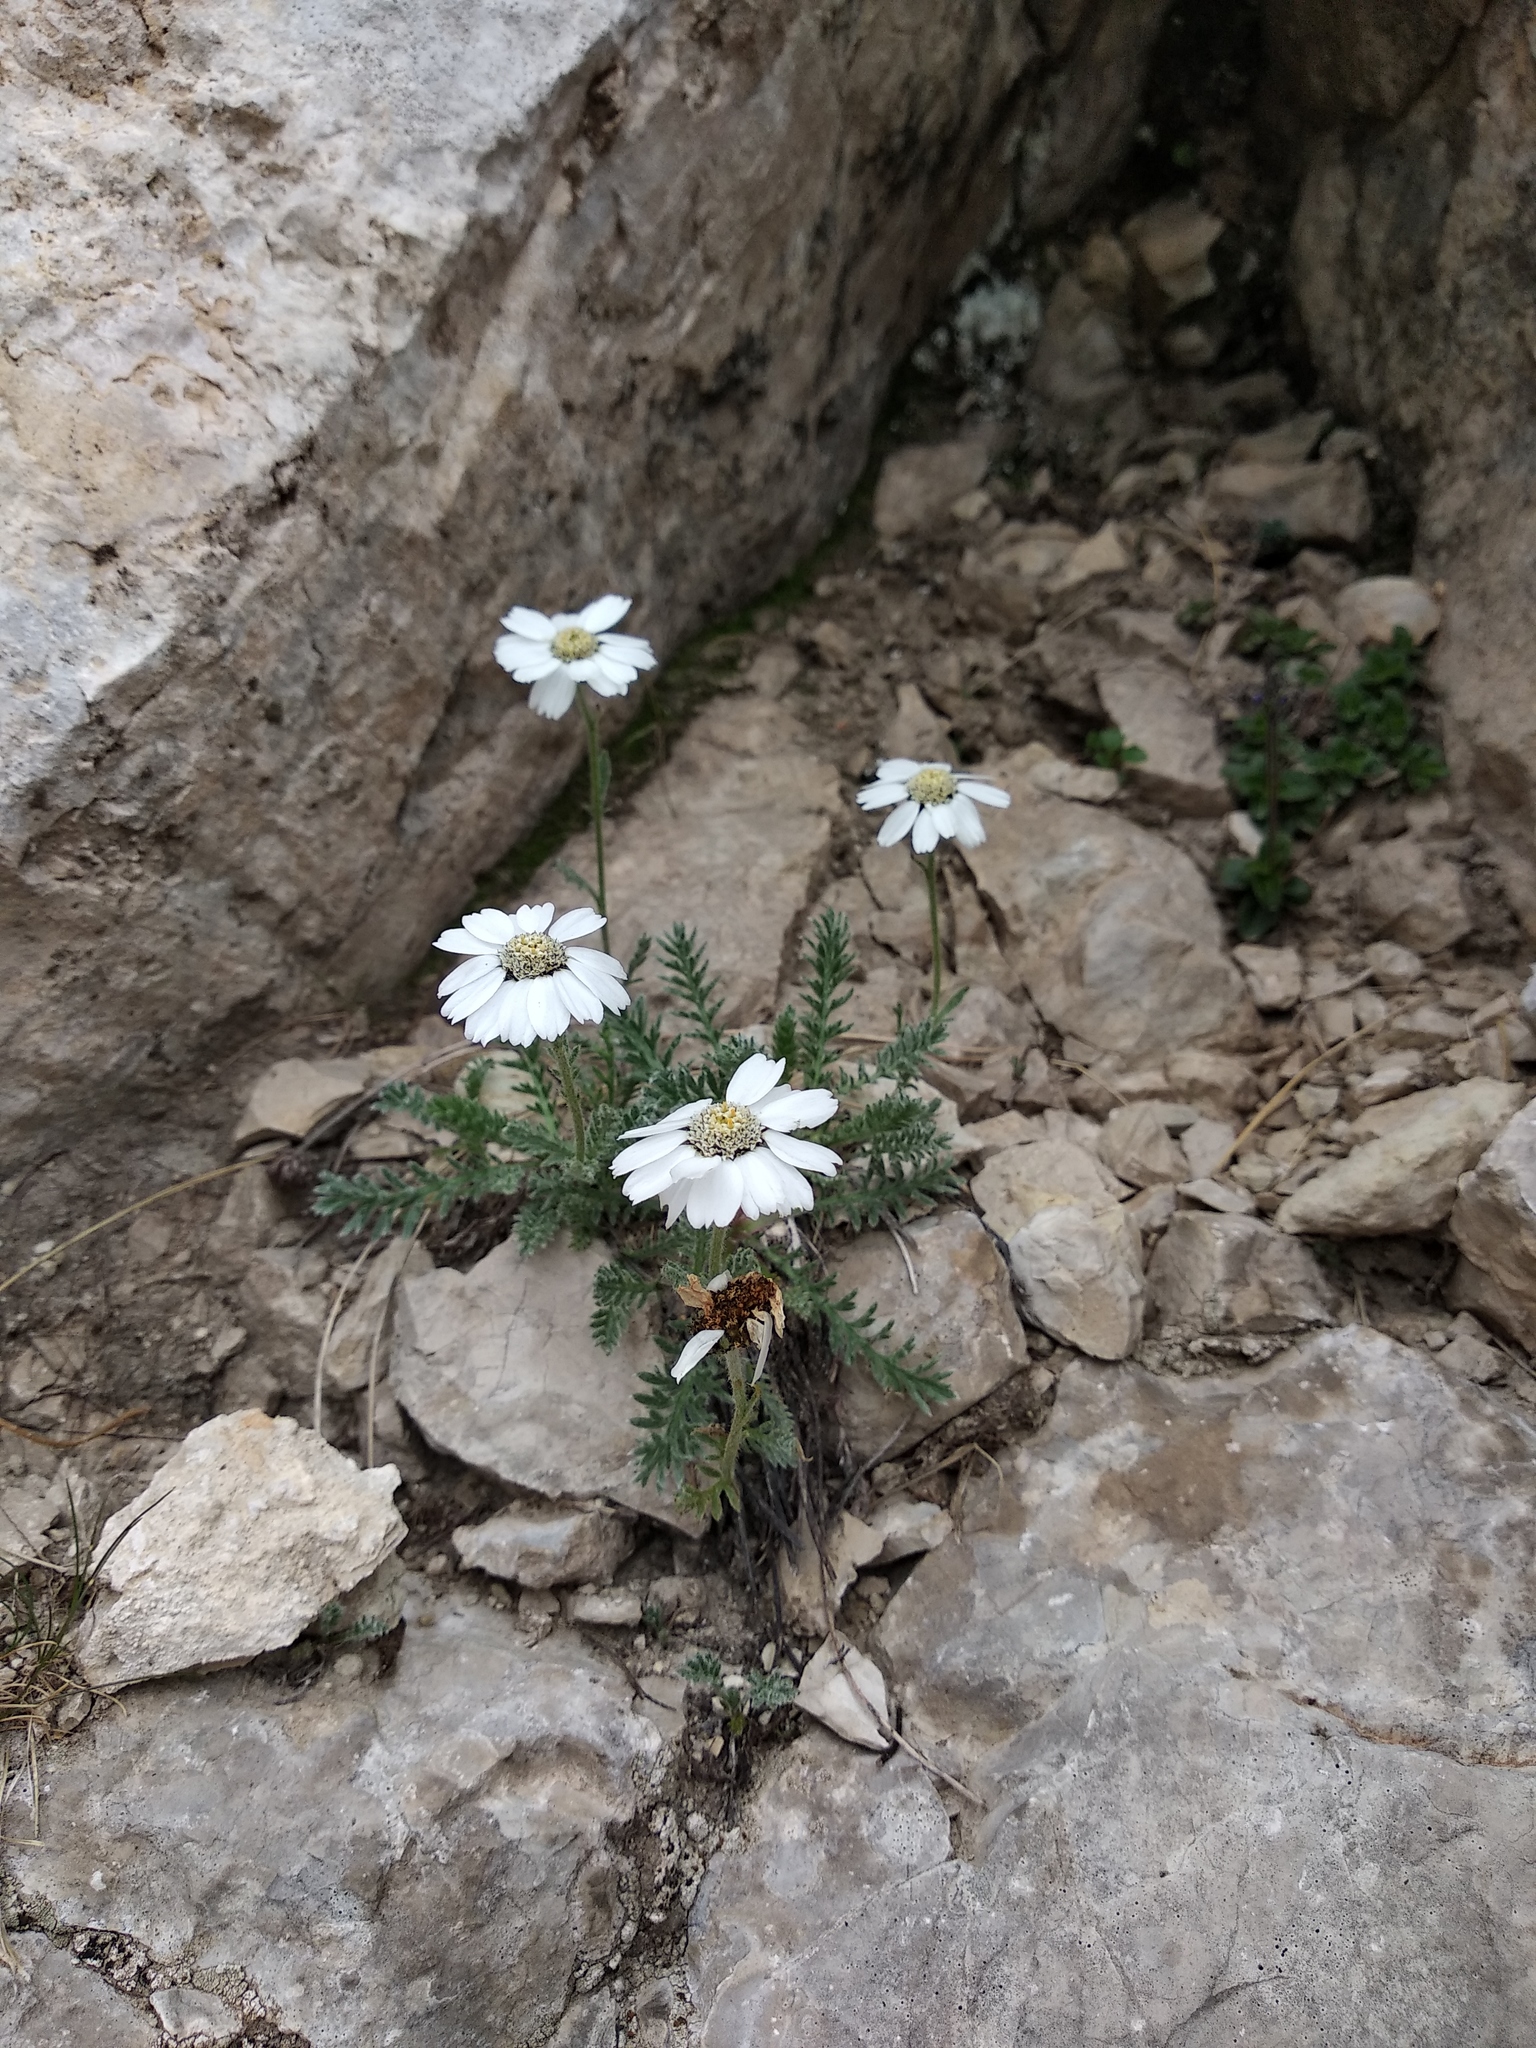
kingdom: Plantae
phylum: Tracheophyta
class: Magnoliopsida
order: Asterales
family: Asteraceae
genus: Achillea
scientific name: Achillea barrelieri
